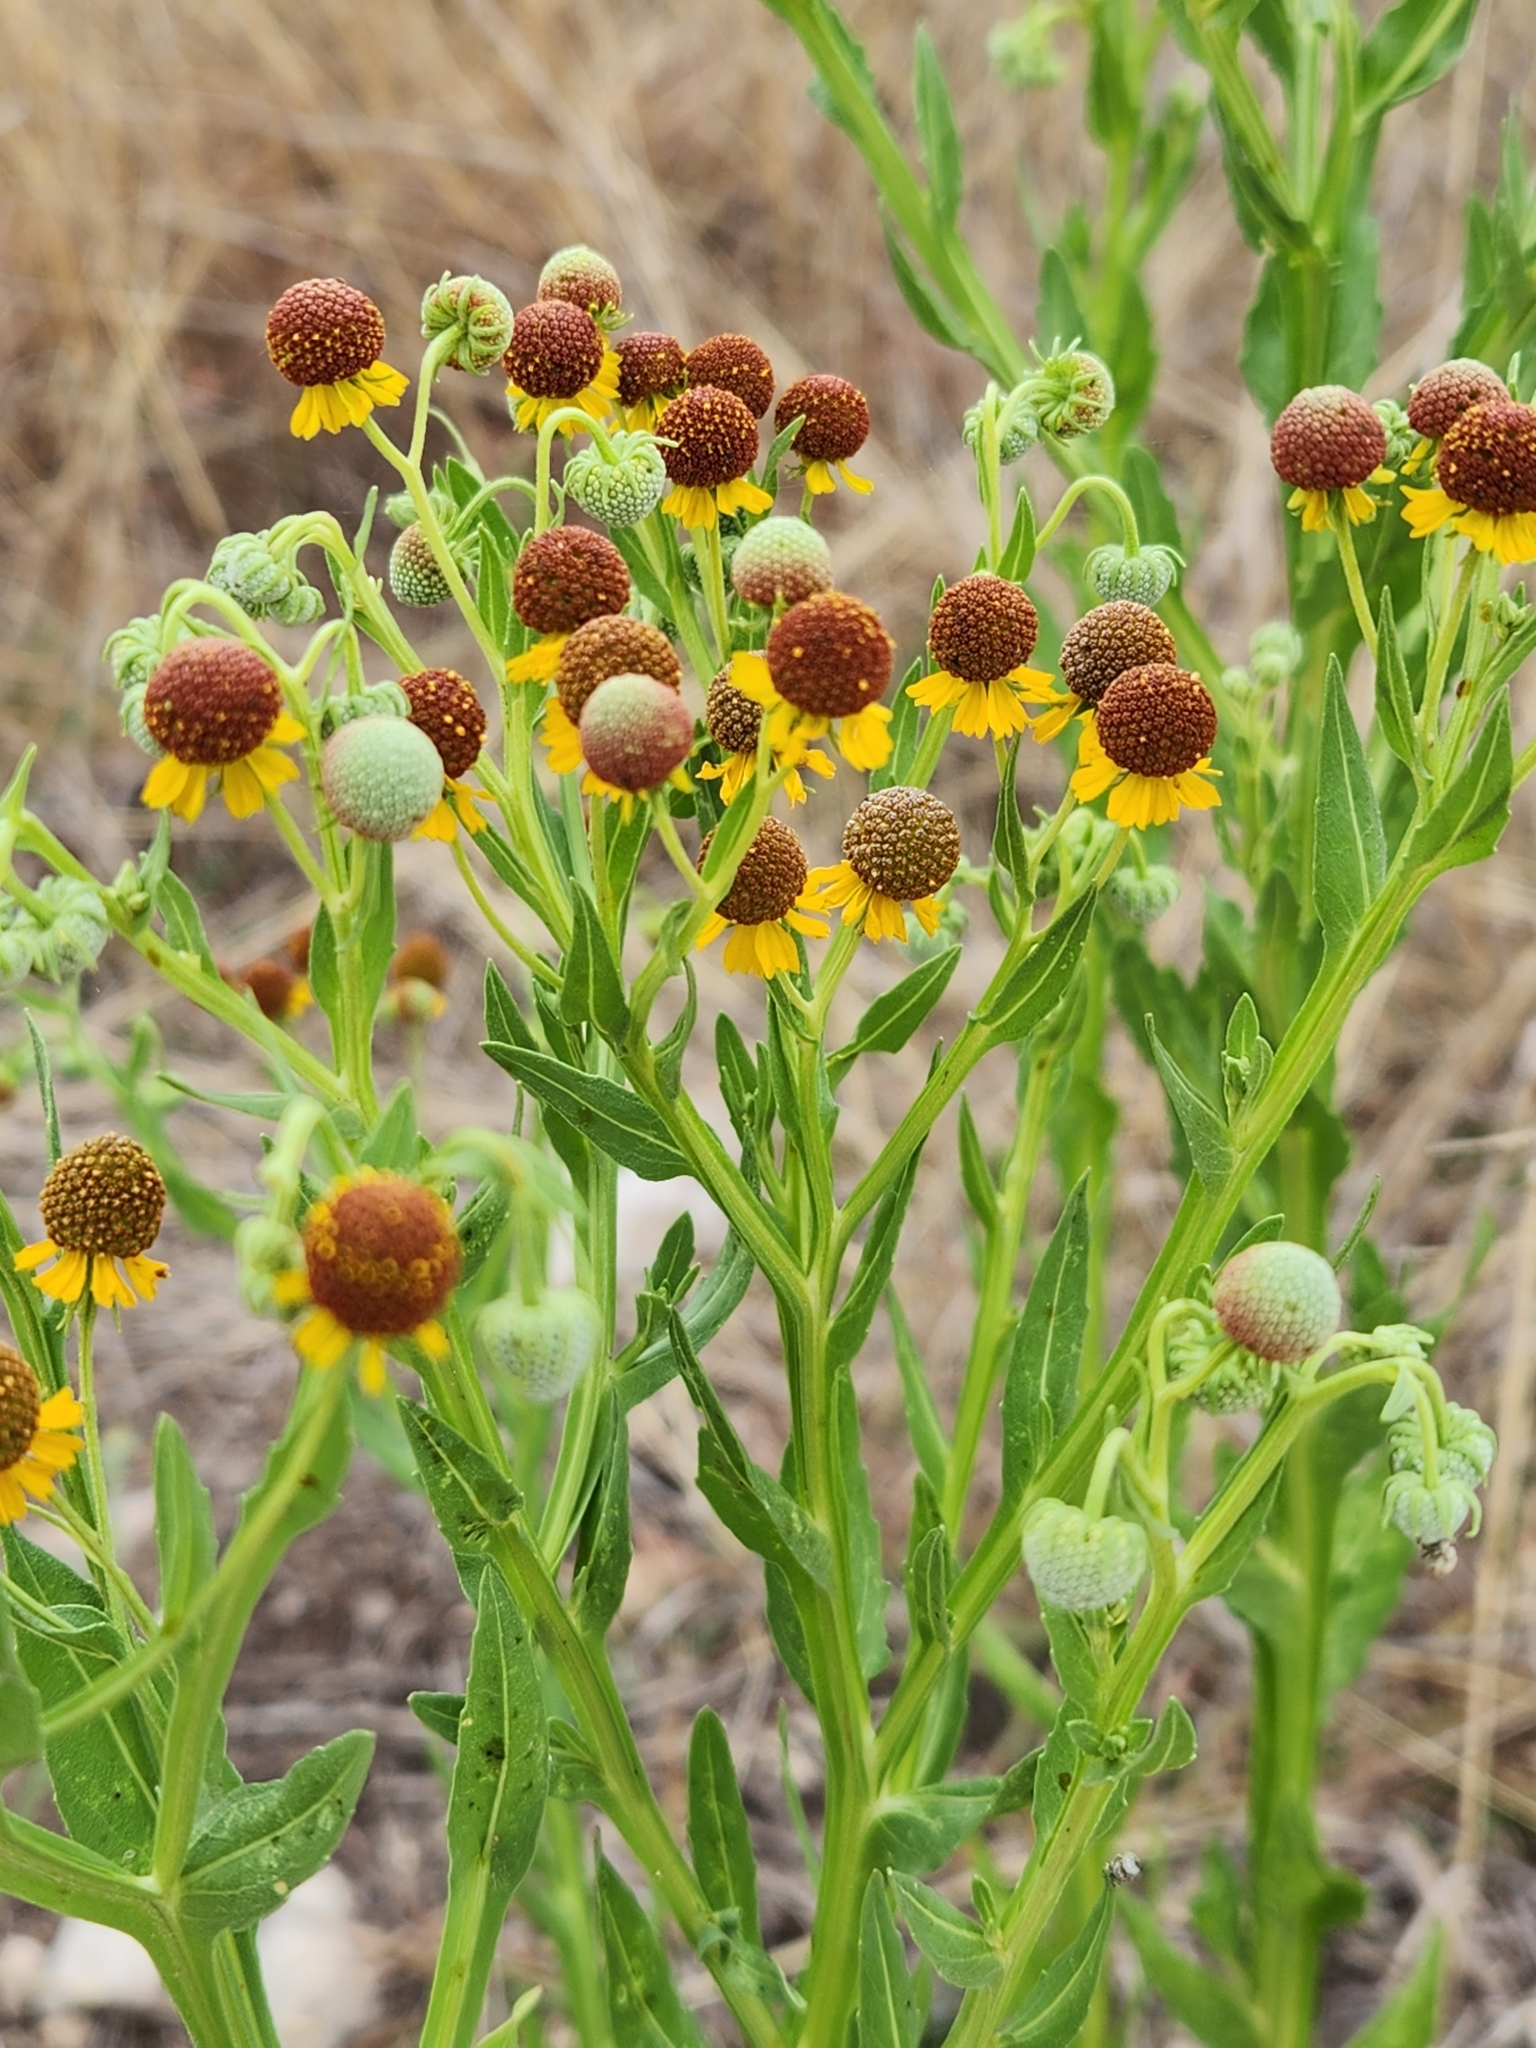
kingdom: Plantae
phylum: Tracheophyta
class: Magnoliopsida
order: Asterales
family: Asteraceae
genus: Helenium
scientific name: Helenium microcephalum
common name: Smallhead sneezeweed
